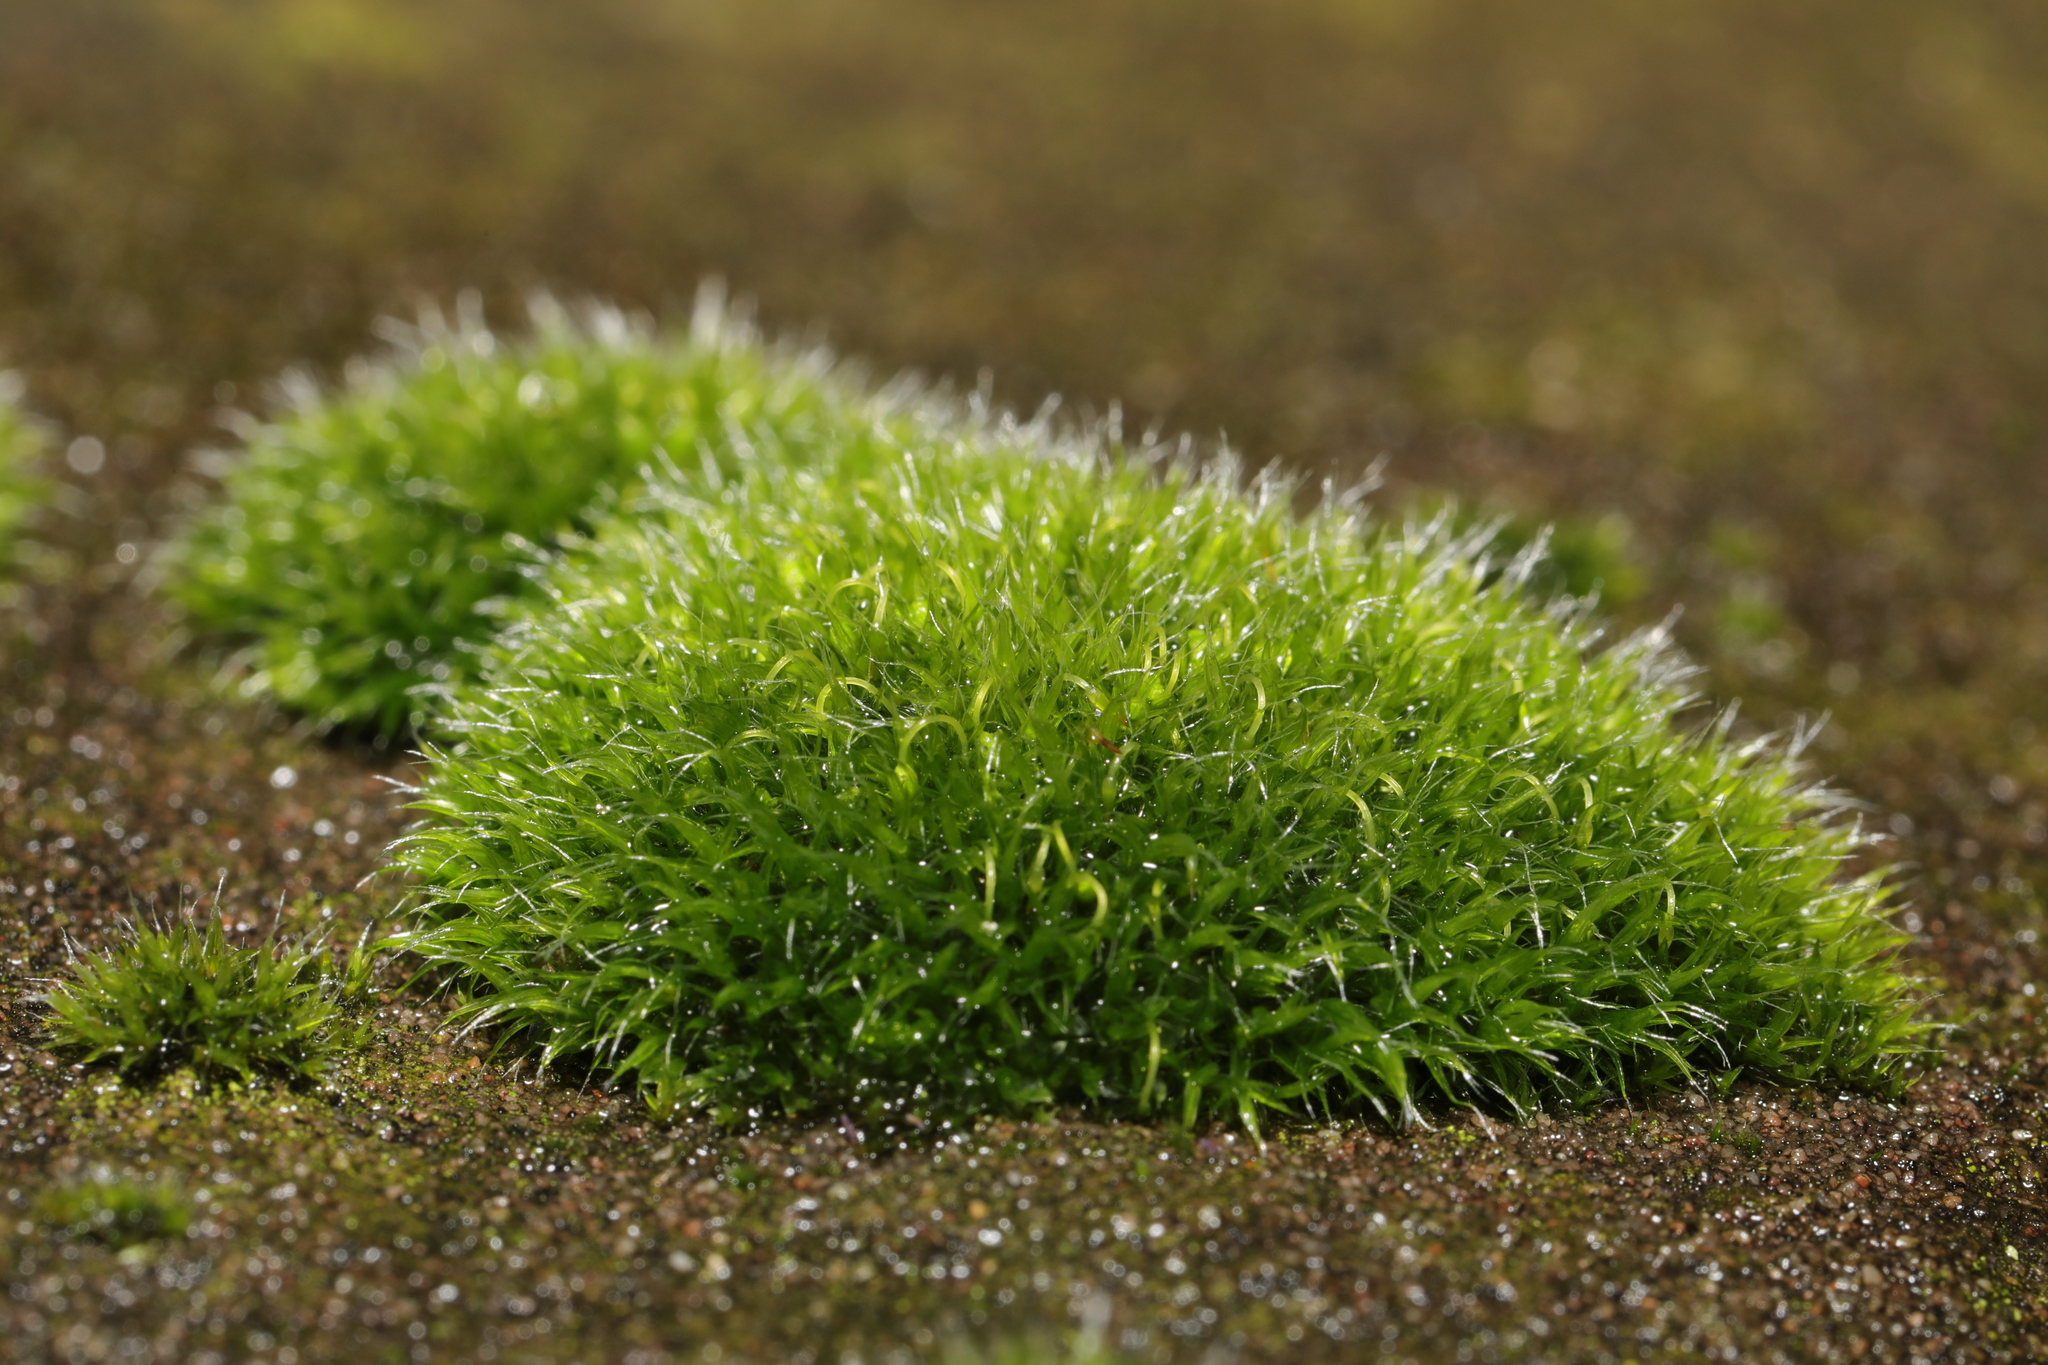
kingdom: Plantae
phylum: Bryophyta
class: Bryopsida
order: Grimmiales
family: Grimmiaceae
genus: Grimmia
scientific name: Grimmia pulvinata
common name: Grey-cushioned grimmia
